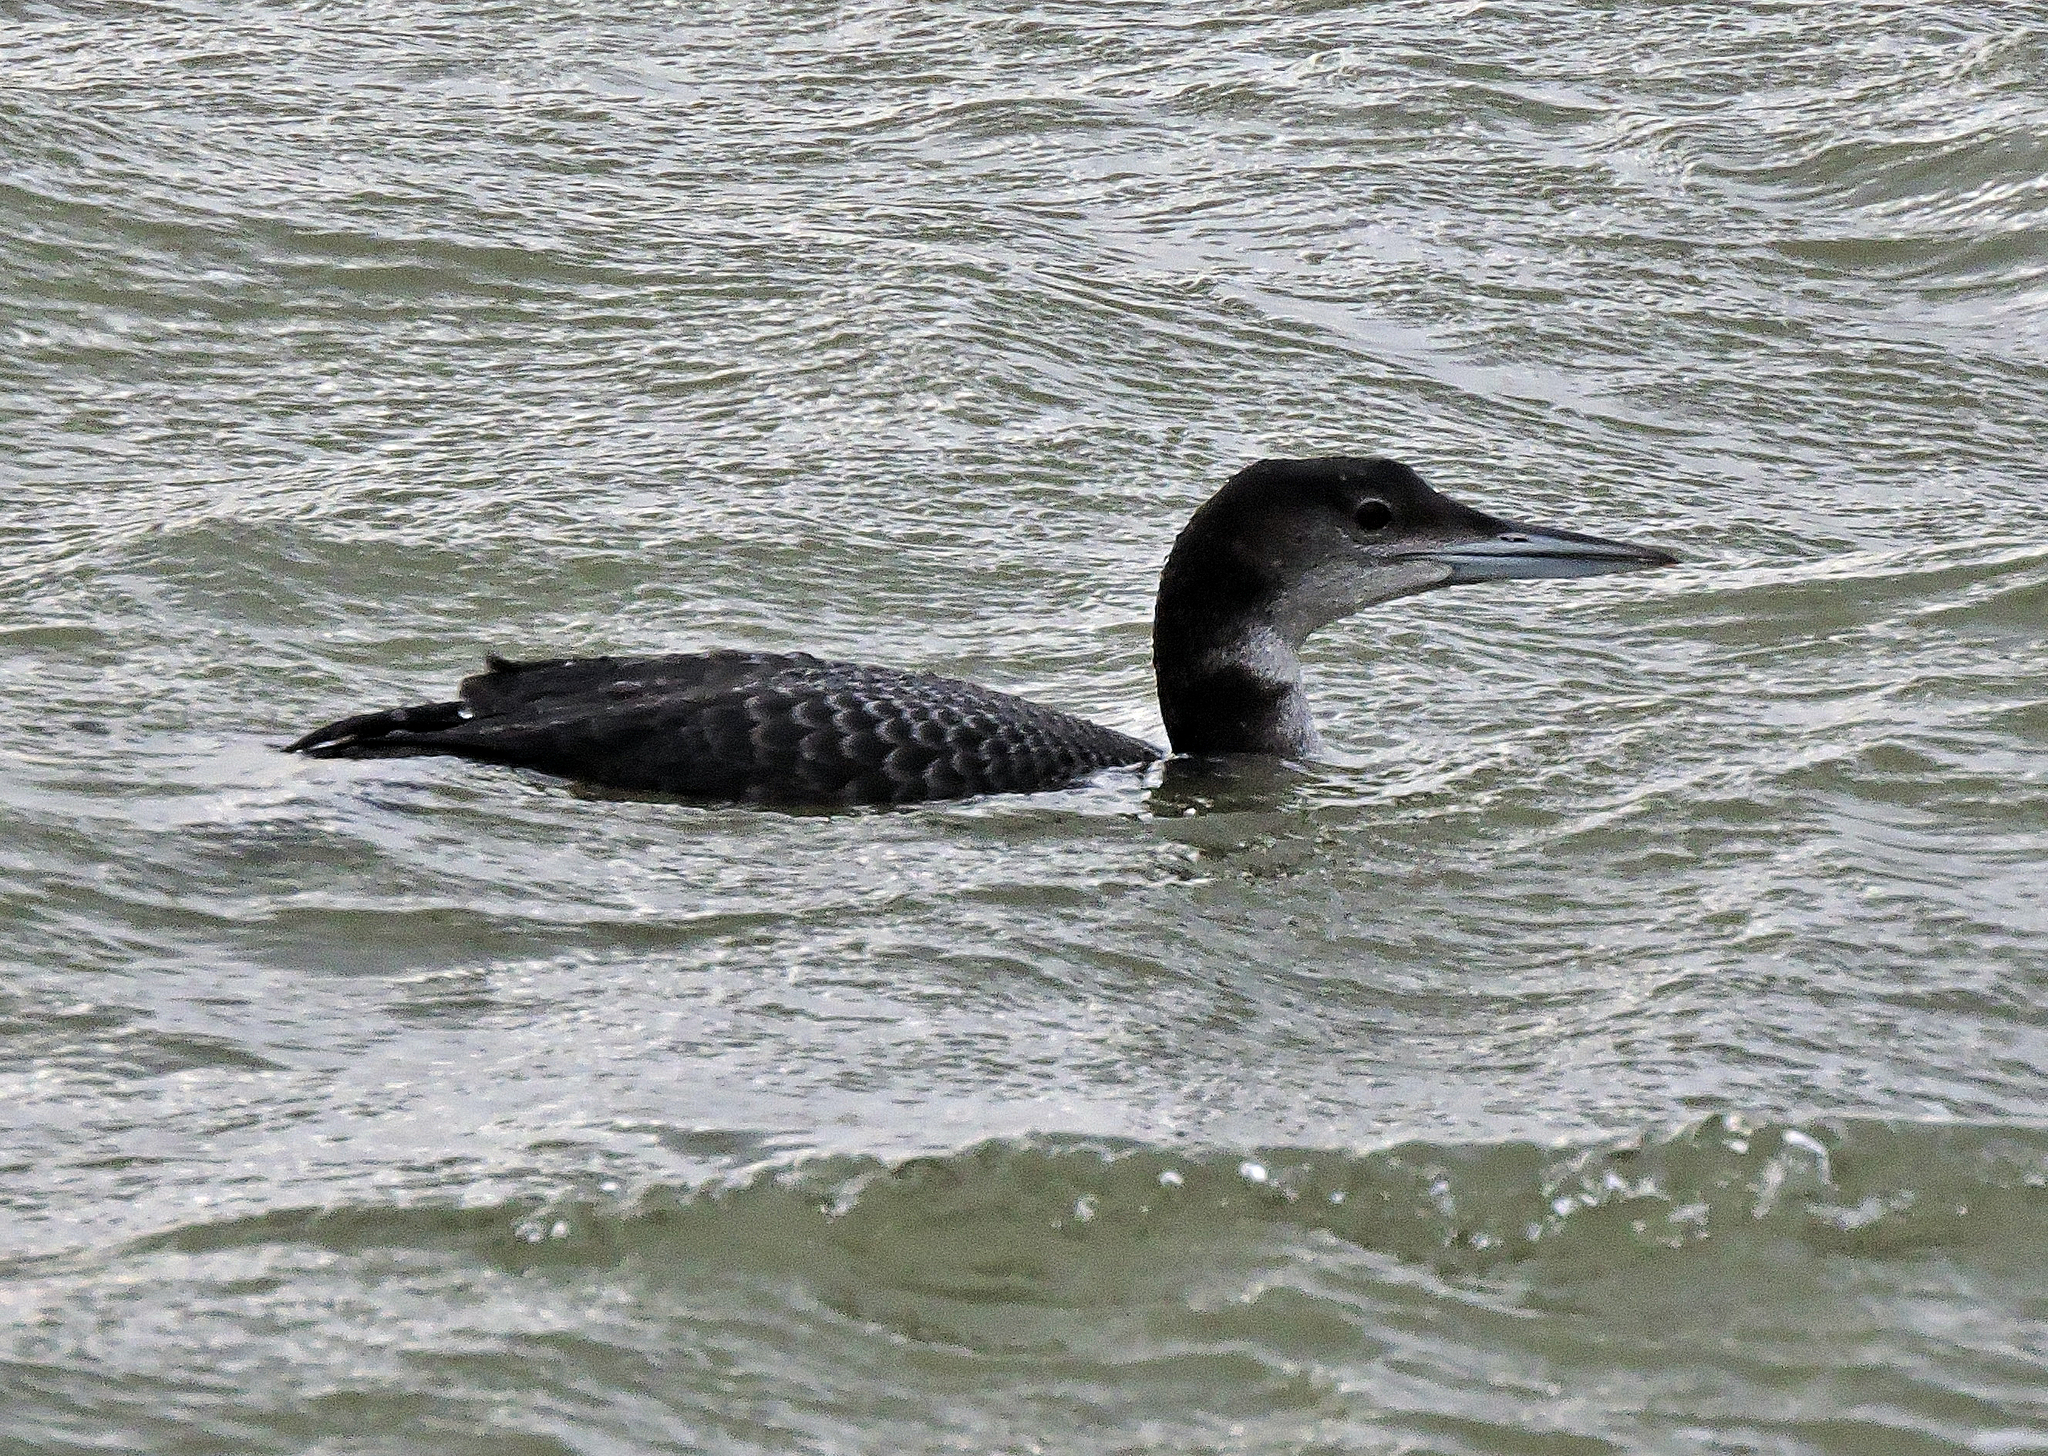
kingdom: Animalia
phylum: Chordata
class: Aves
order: Gaviiformes
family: Gaviidae
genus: Gavia
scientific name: Gavia immer
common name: Common loon
